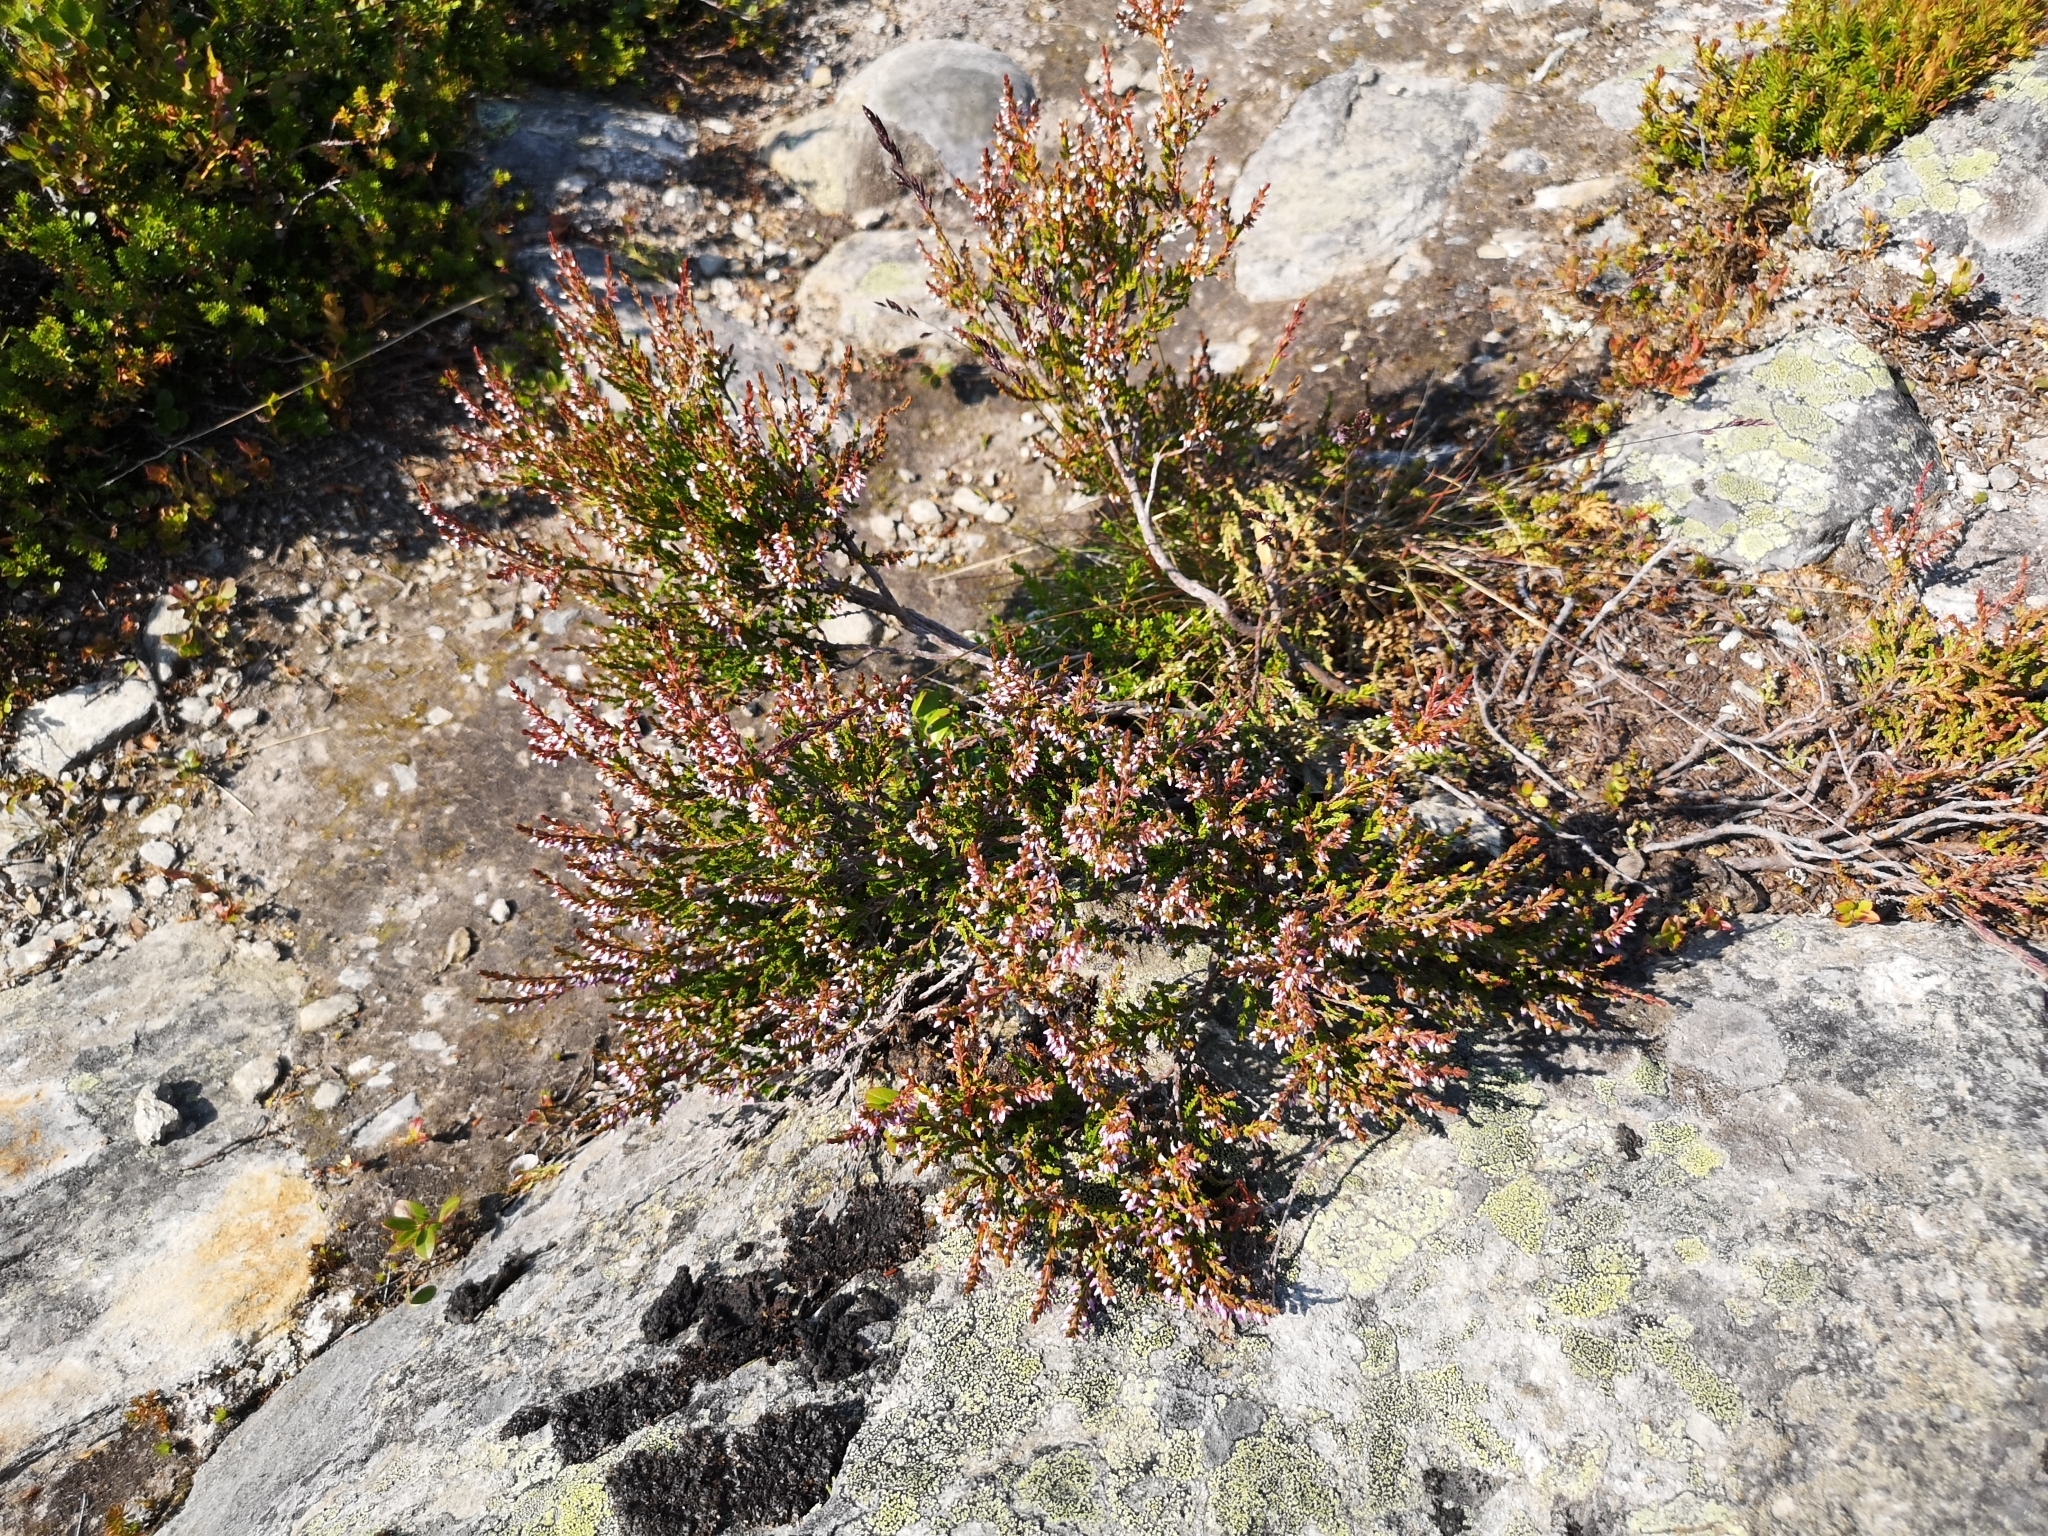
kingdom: Plantae
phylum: Tracheophyta
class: Magnoliopsida
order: Ericales
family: Ericaceae
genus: Calluna
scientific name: Calluna vulgaris
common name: Heather
